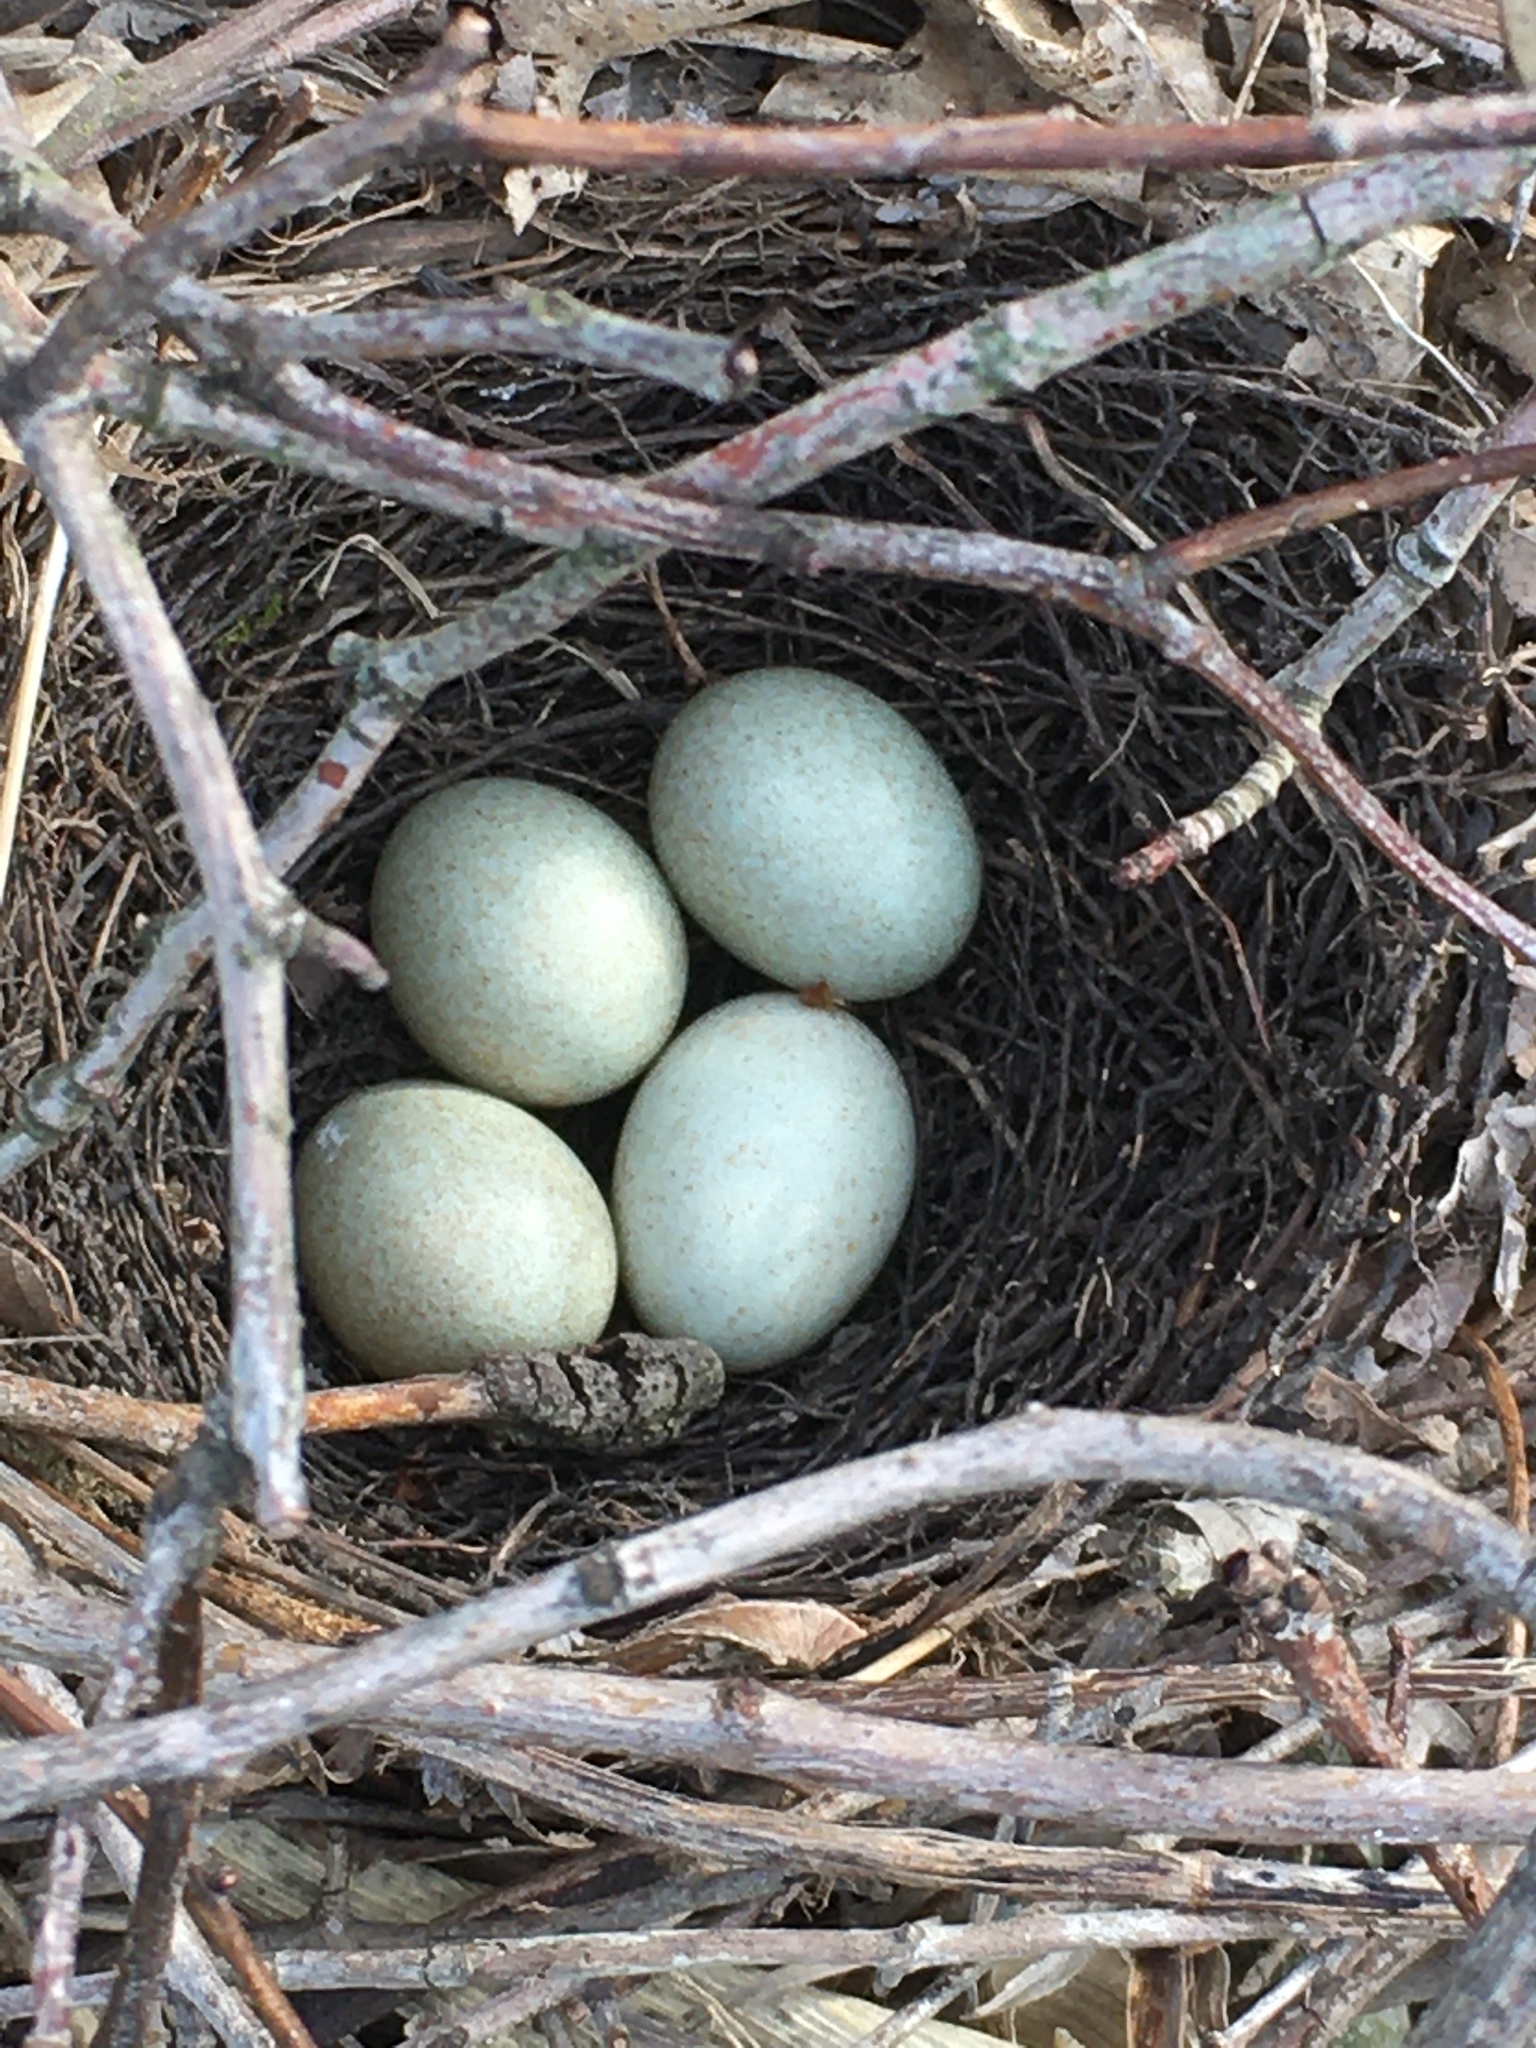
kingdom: Animalia
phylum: Chordata
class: Aves
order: Passeriformes
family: Mimidae
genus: Toxostoma
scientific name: Toxostoma rufum
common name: Brown thrasher
